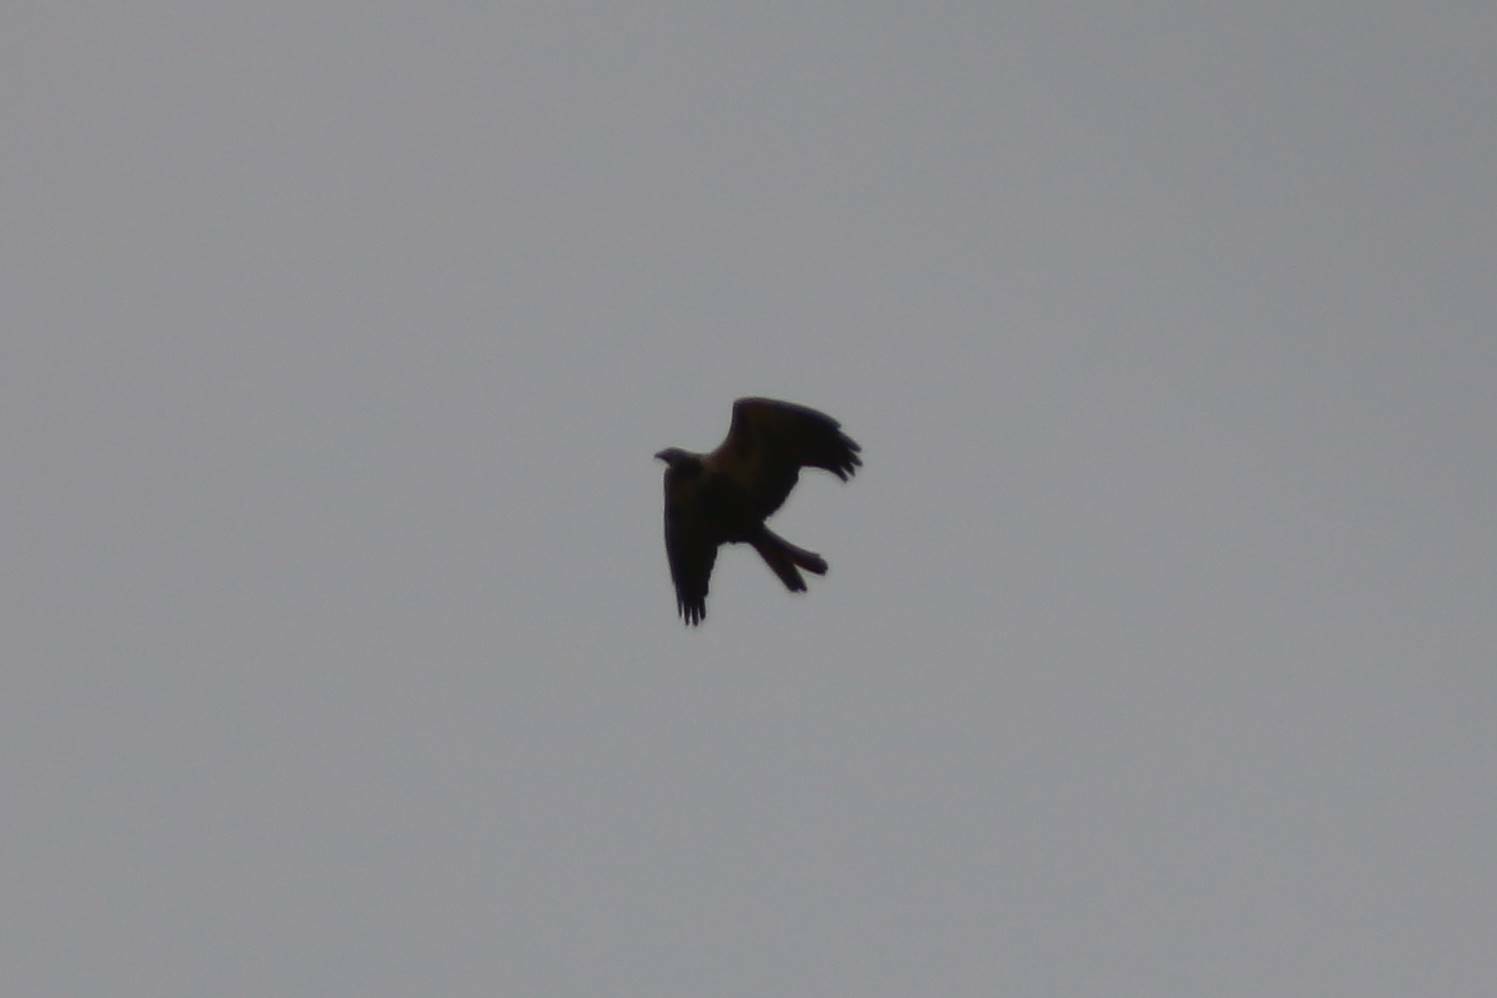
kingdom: Animalia
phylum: Chordata
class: Aves
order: Accipitriformes
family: Accipitridae
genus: Circus
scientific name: Circus aeruginosus
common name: Western marsh harrier
